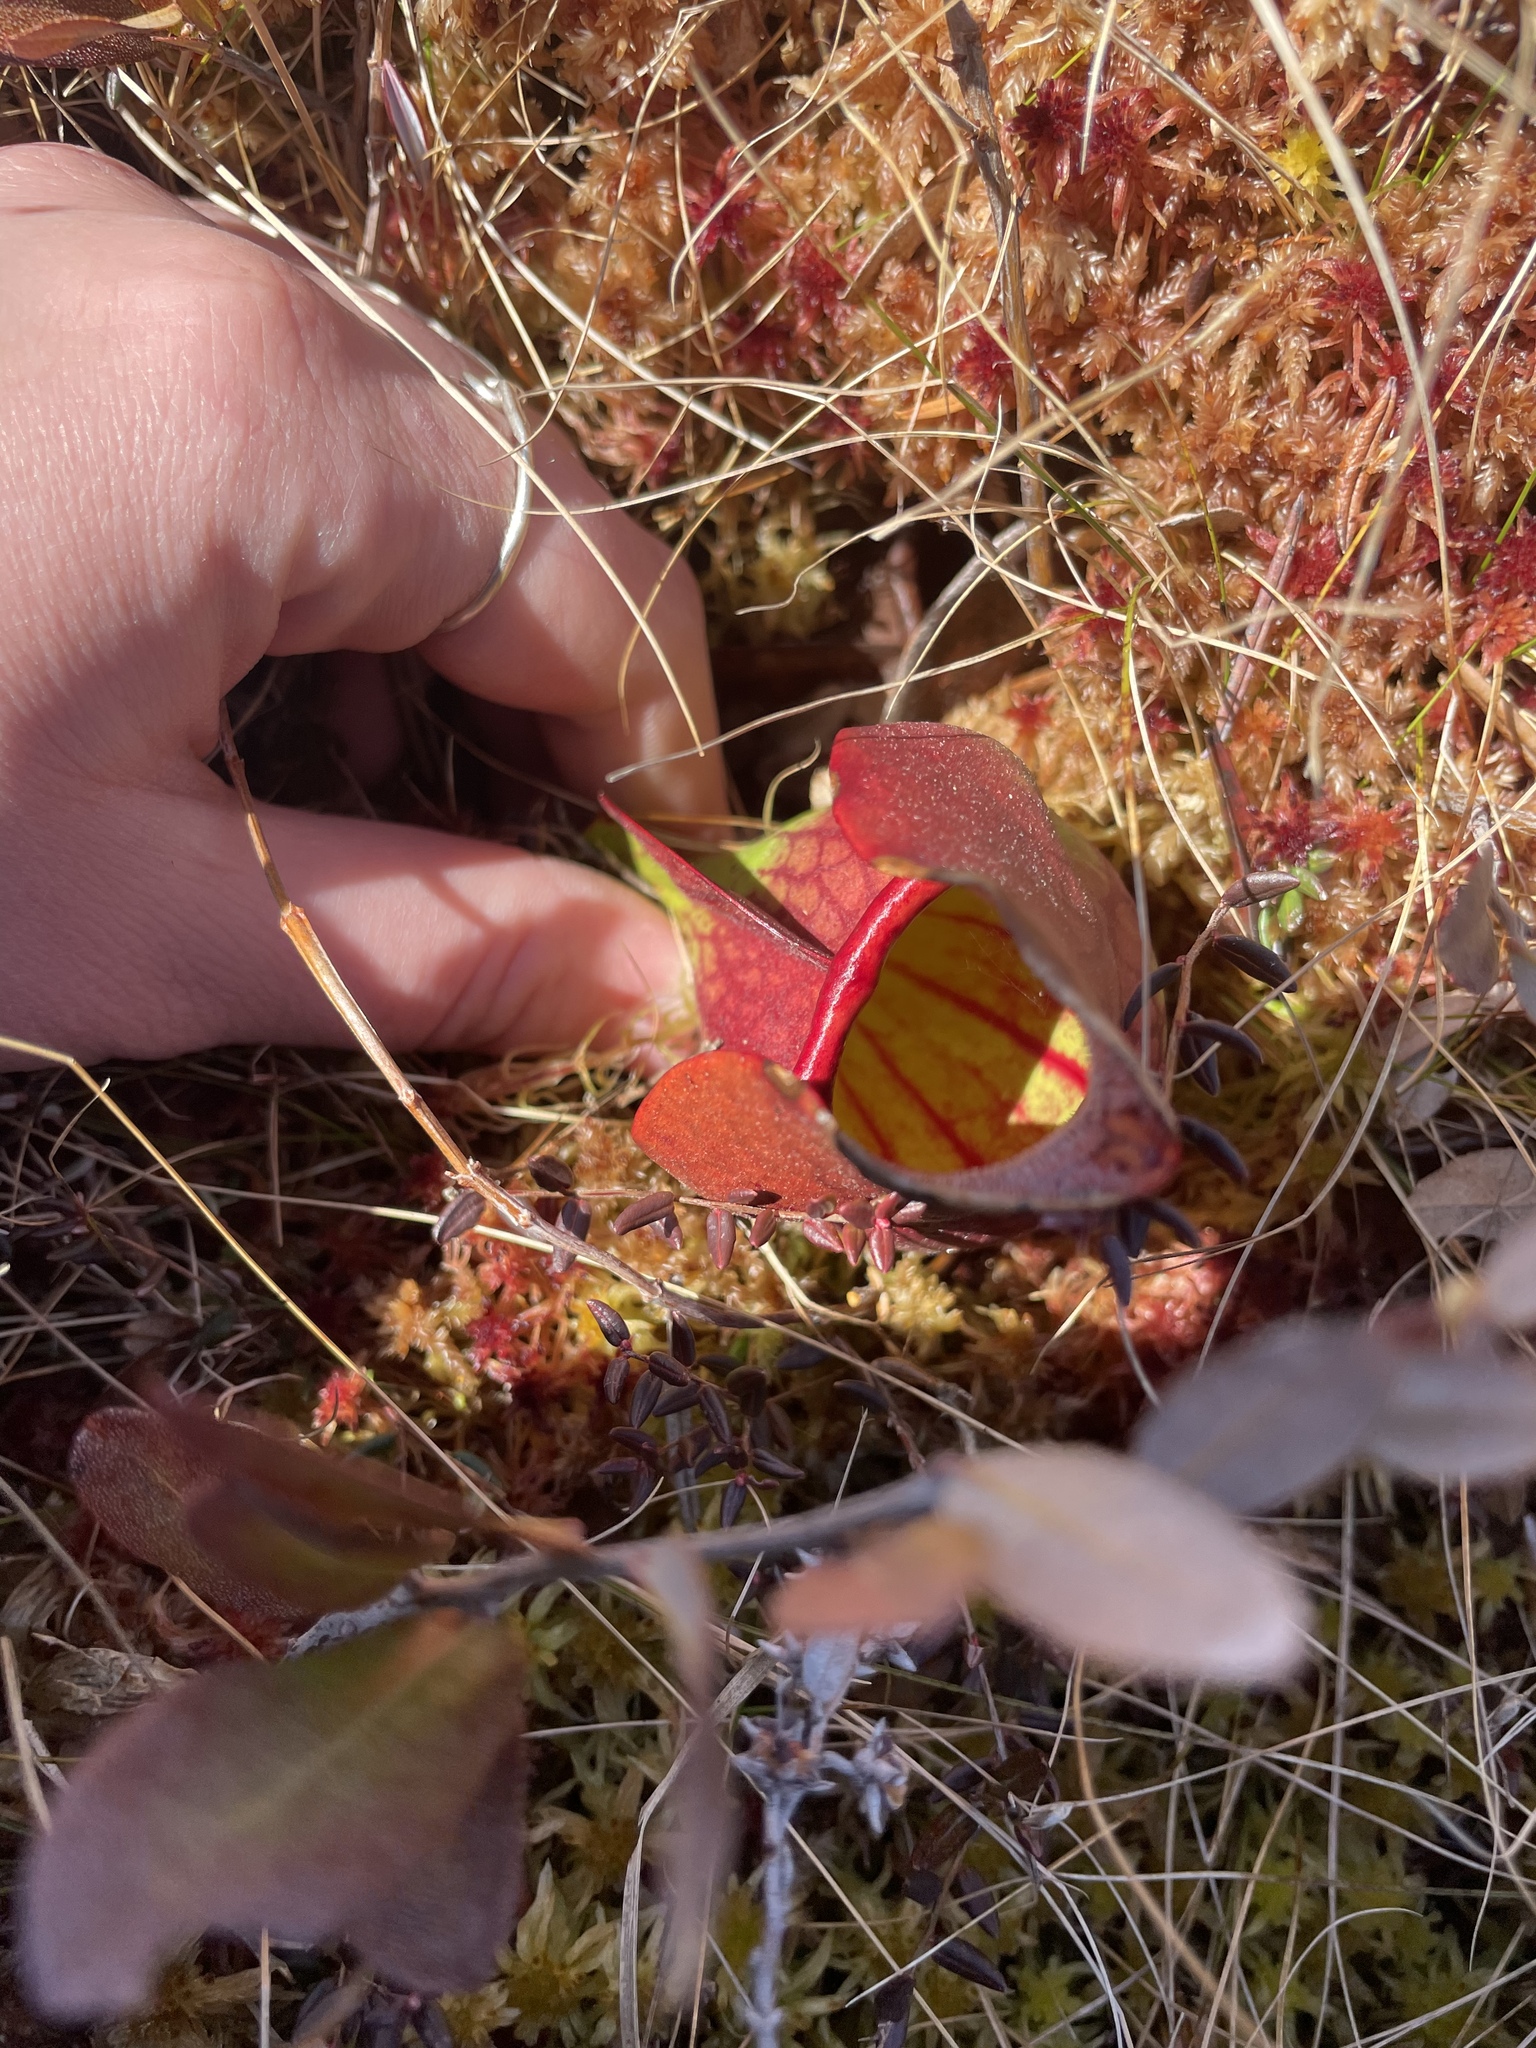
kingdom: Plantae
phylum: Tracheophyta
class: Magnoliopsida
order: Ericales
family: Sarraceniaceae
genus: Sarracenia
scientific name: Sarracenia purpurea
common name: Pitcherplant
